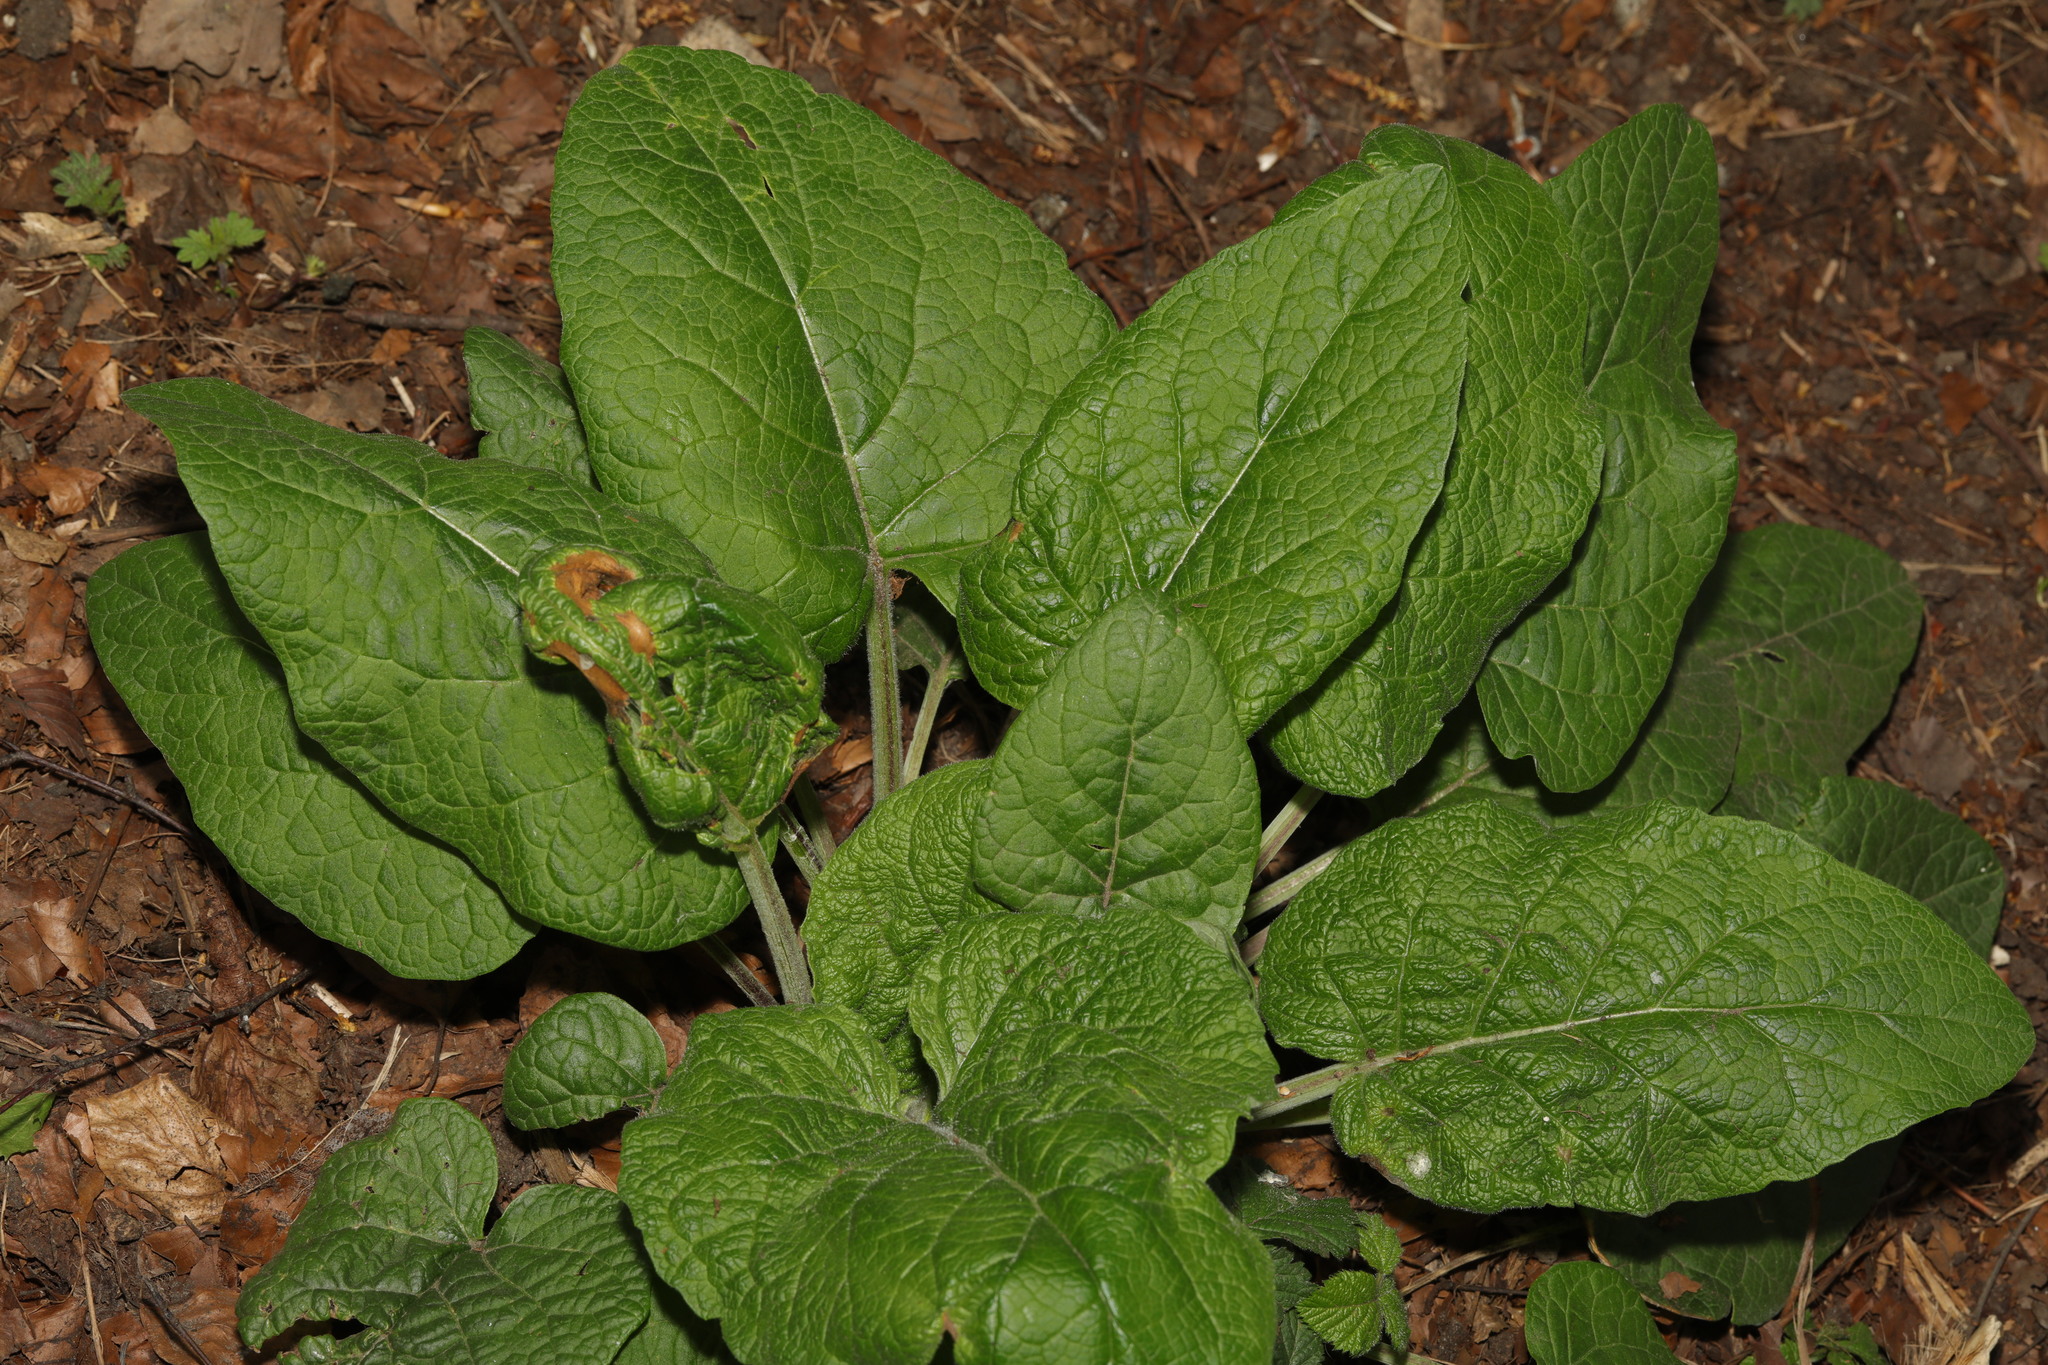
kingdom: Plantae
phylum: Tracheophyta
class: Magnoliopsida
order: Asterales
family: Asteraceae
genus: Arctium
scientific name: Arctium minus
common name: Lesser burdock
